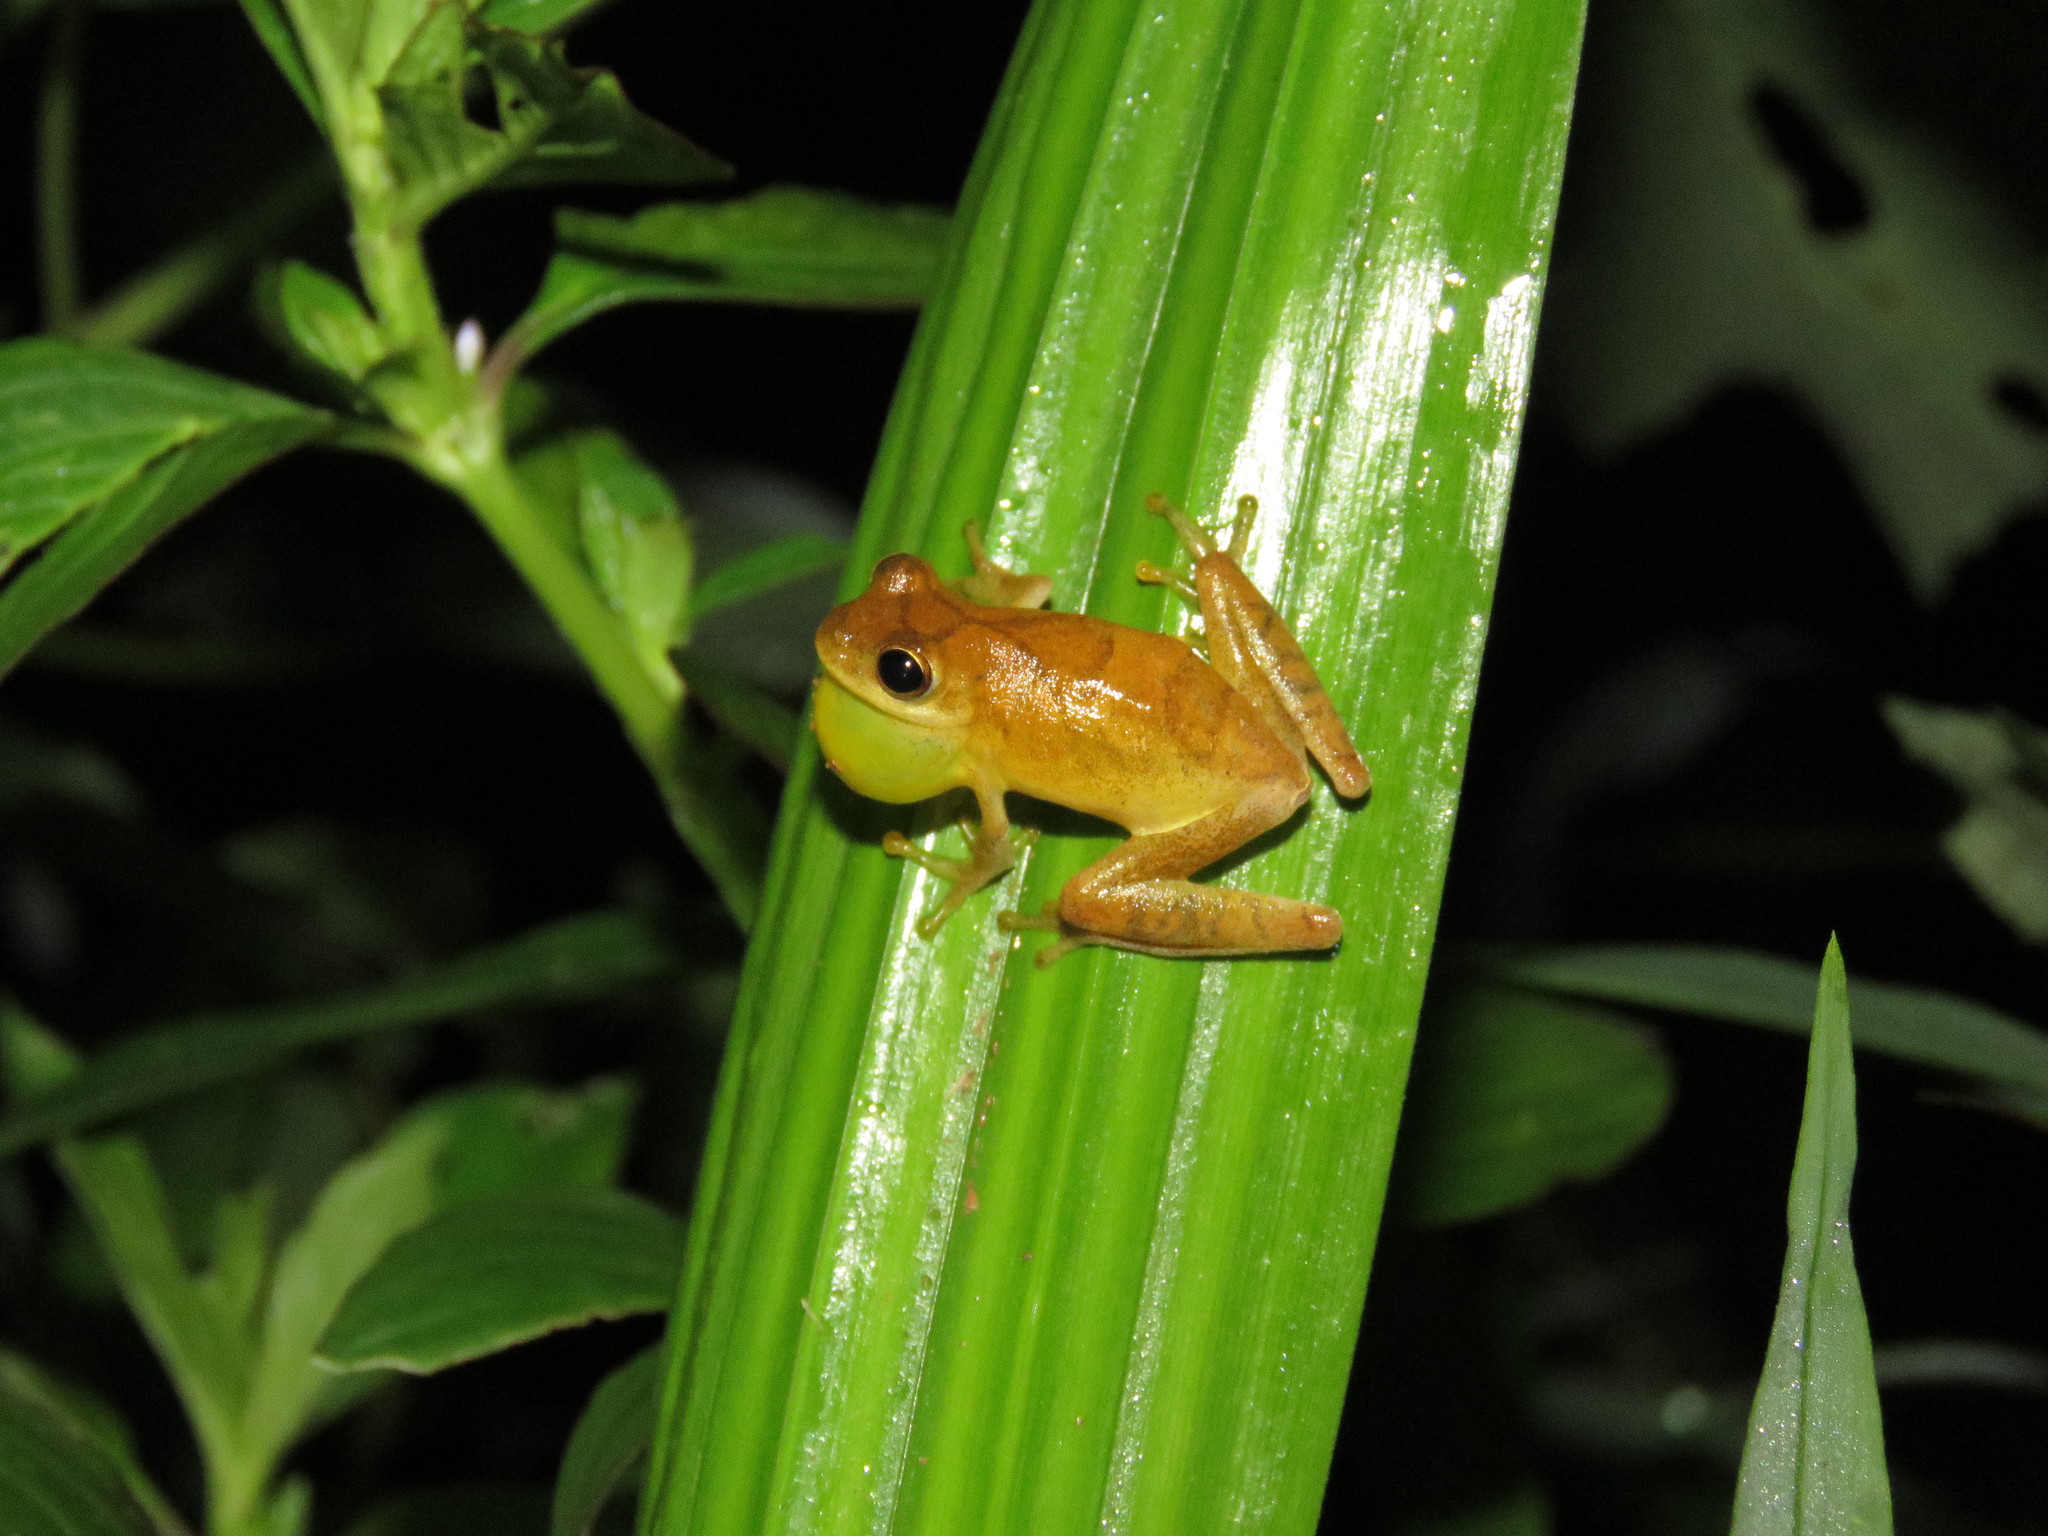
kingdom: Animalia
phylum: Chordata
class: Amphibia
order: Anura
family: Hylidae
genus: Dendropsophus
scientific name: Dendropsophus minutus
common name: Lesser treefrog
